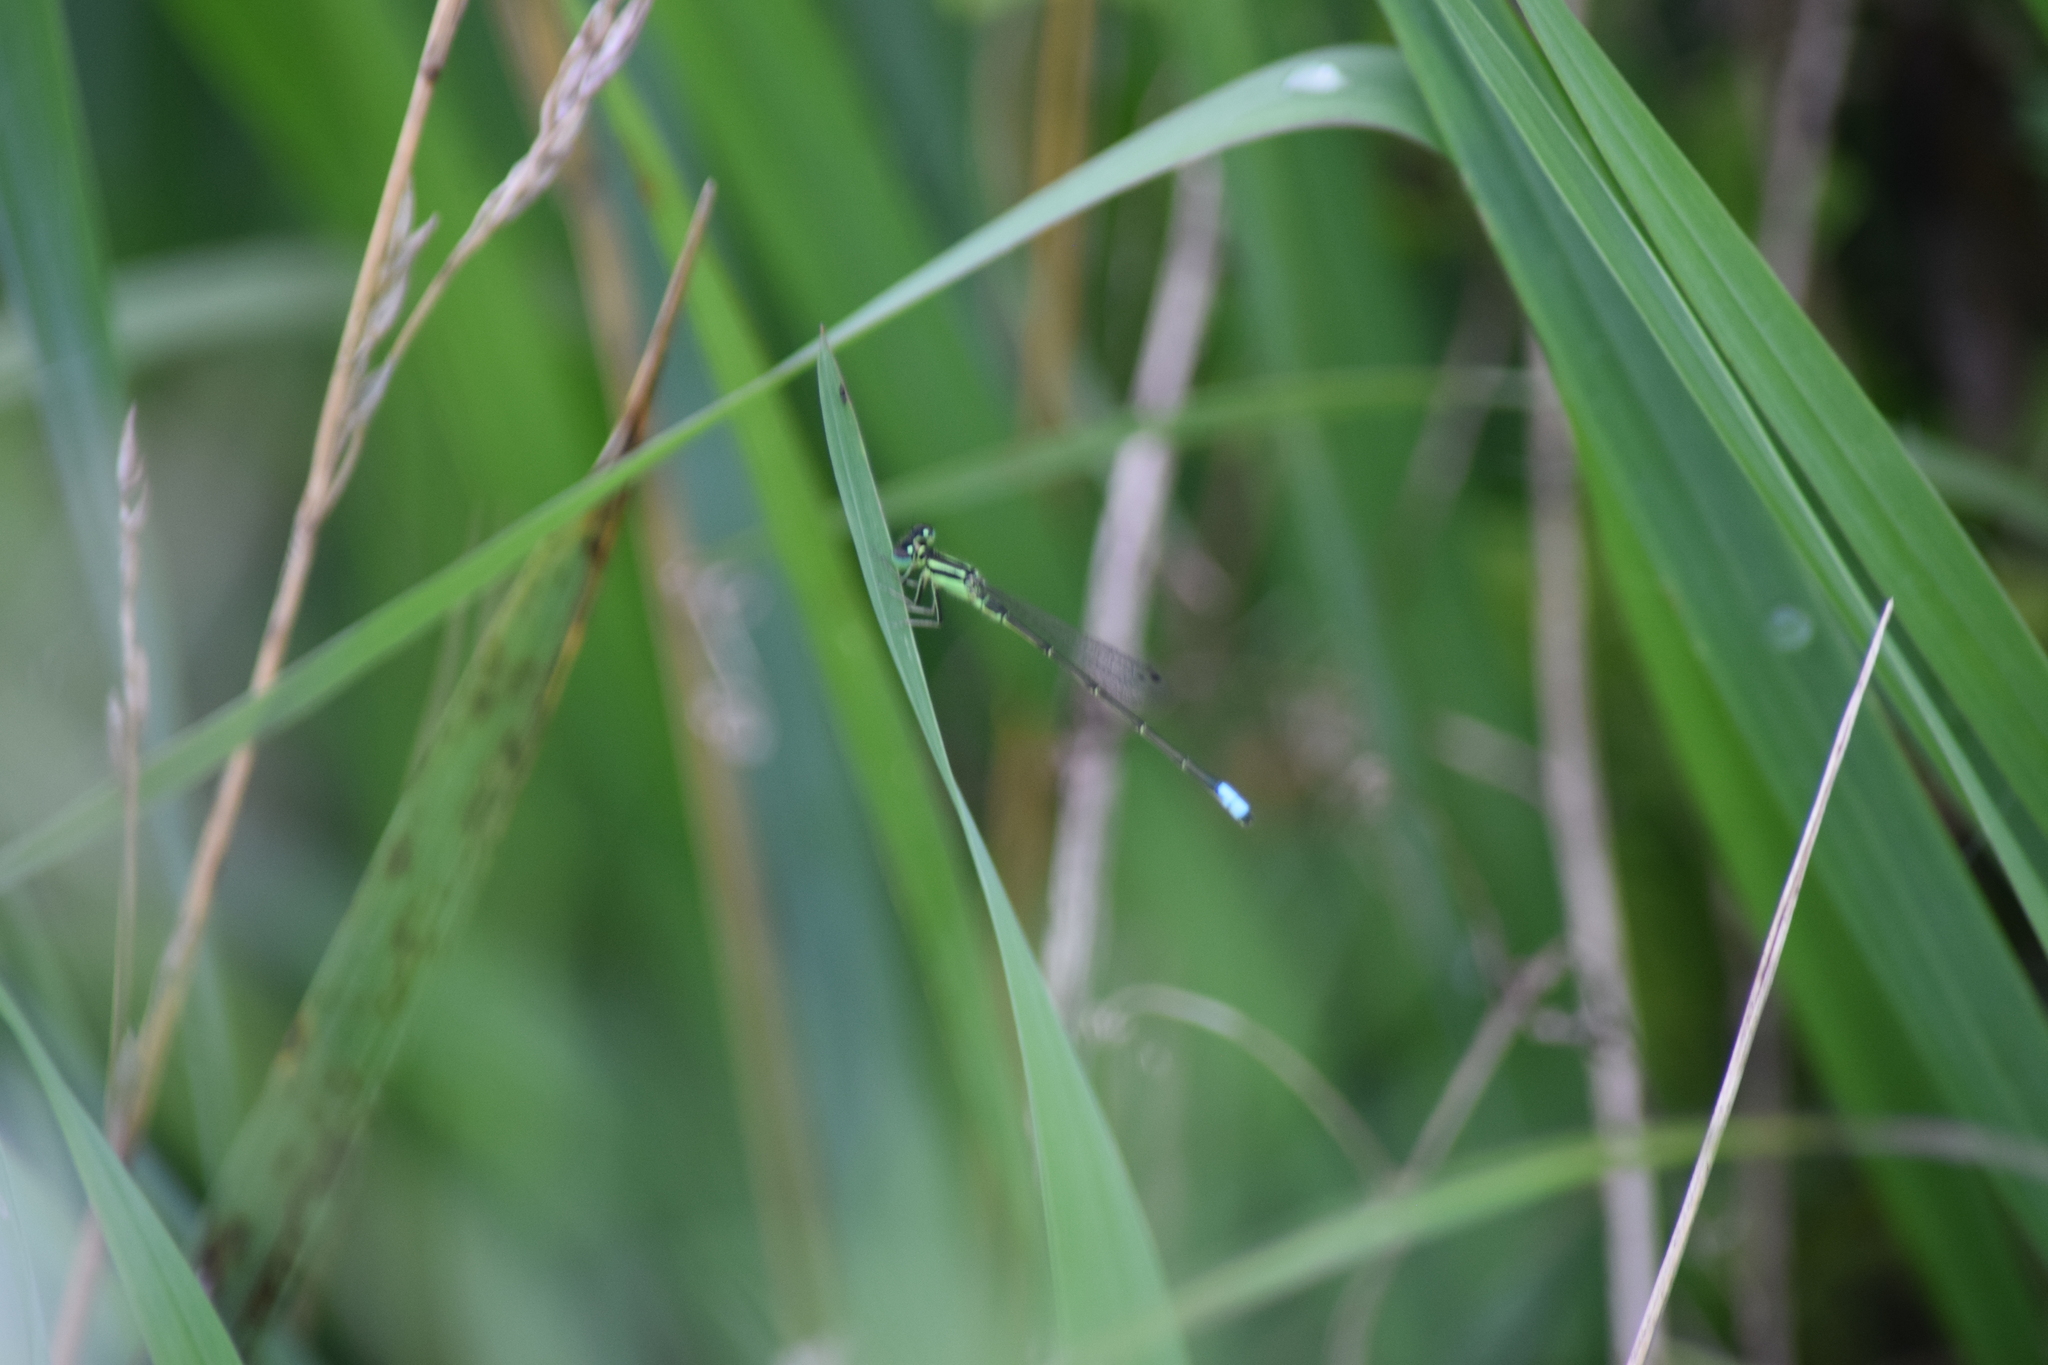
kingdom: Animalia
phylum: Arthropoda
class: Insecta
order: Odonata
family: Coenagrionidae
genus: Ischnura
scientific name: Ischnura verticalis
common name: Eastern forktail
